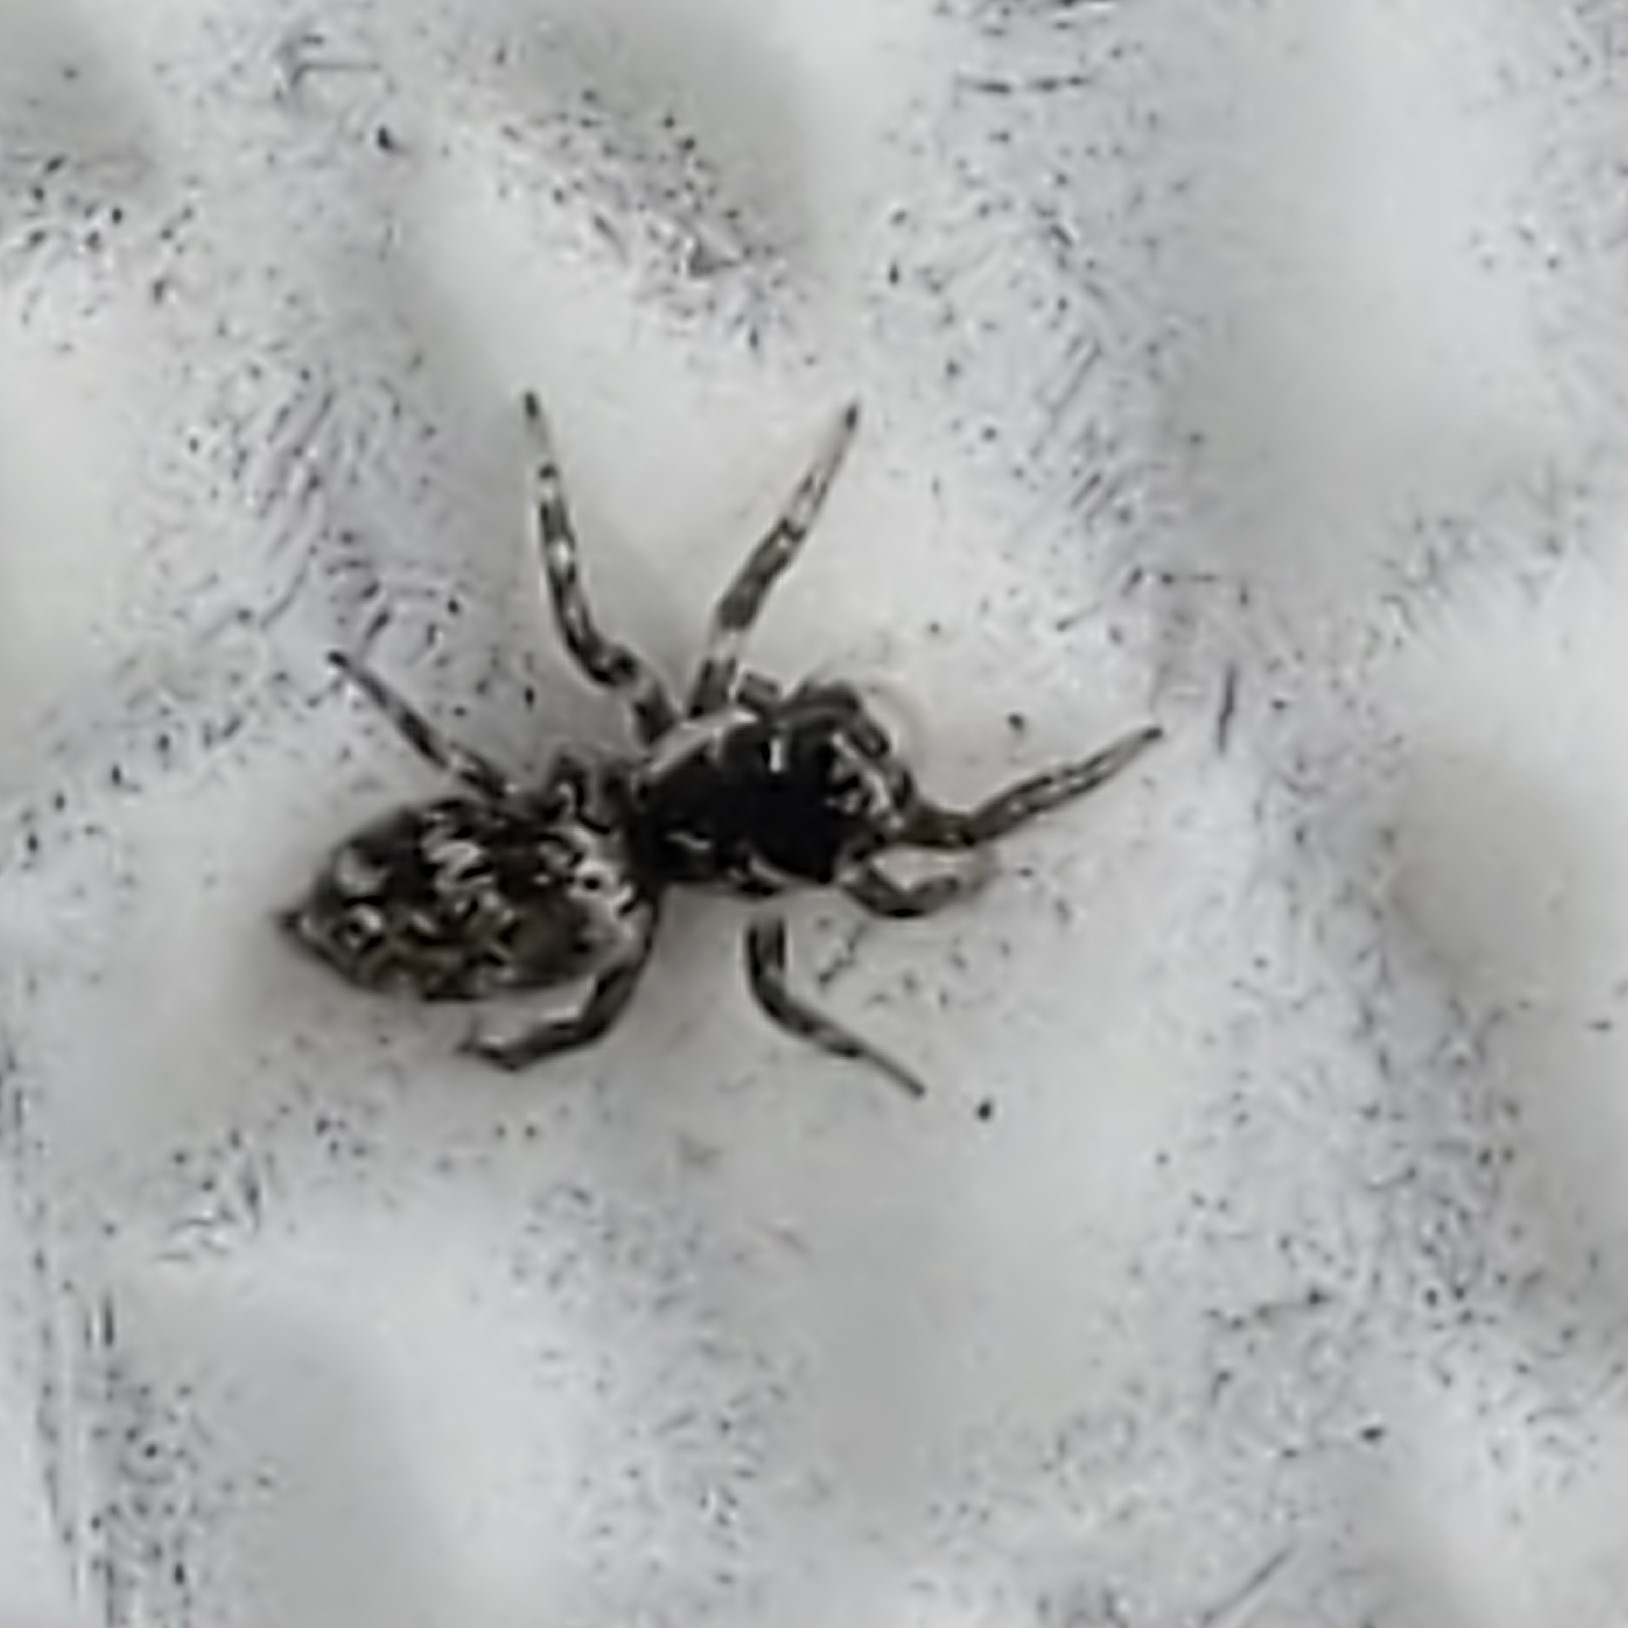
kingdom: Animalia
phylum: Arthropoda
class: Arachnida
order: Araneae
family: Salticidae
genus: Salticus
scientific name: Salticus scenicus
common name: Zebra jumper
